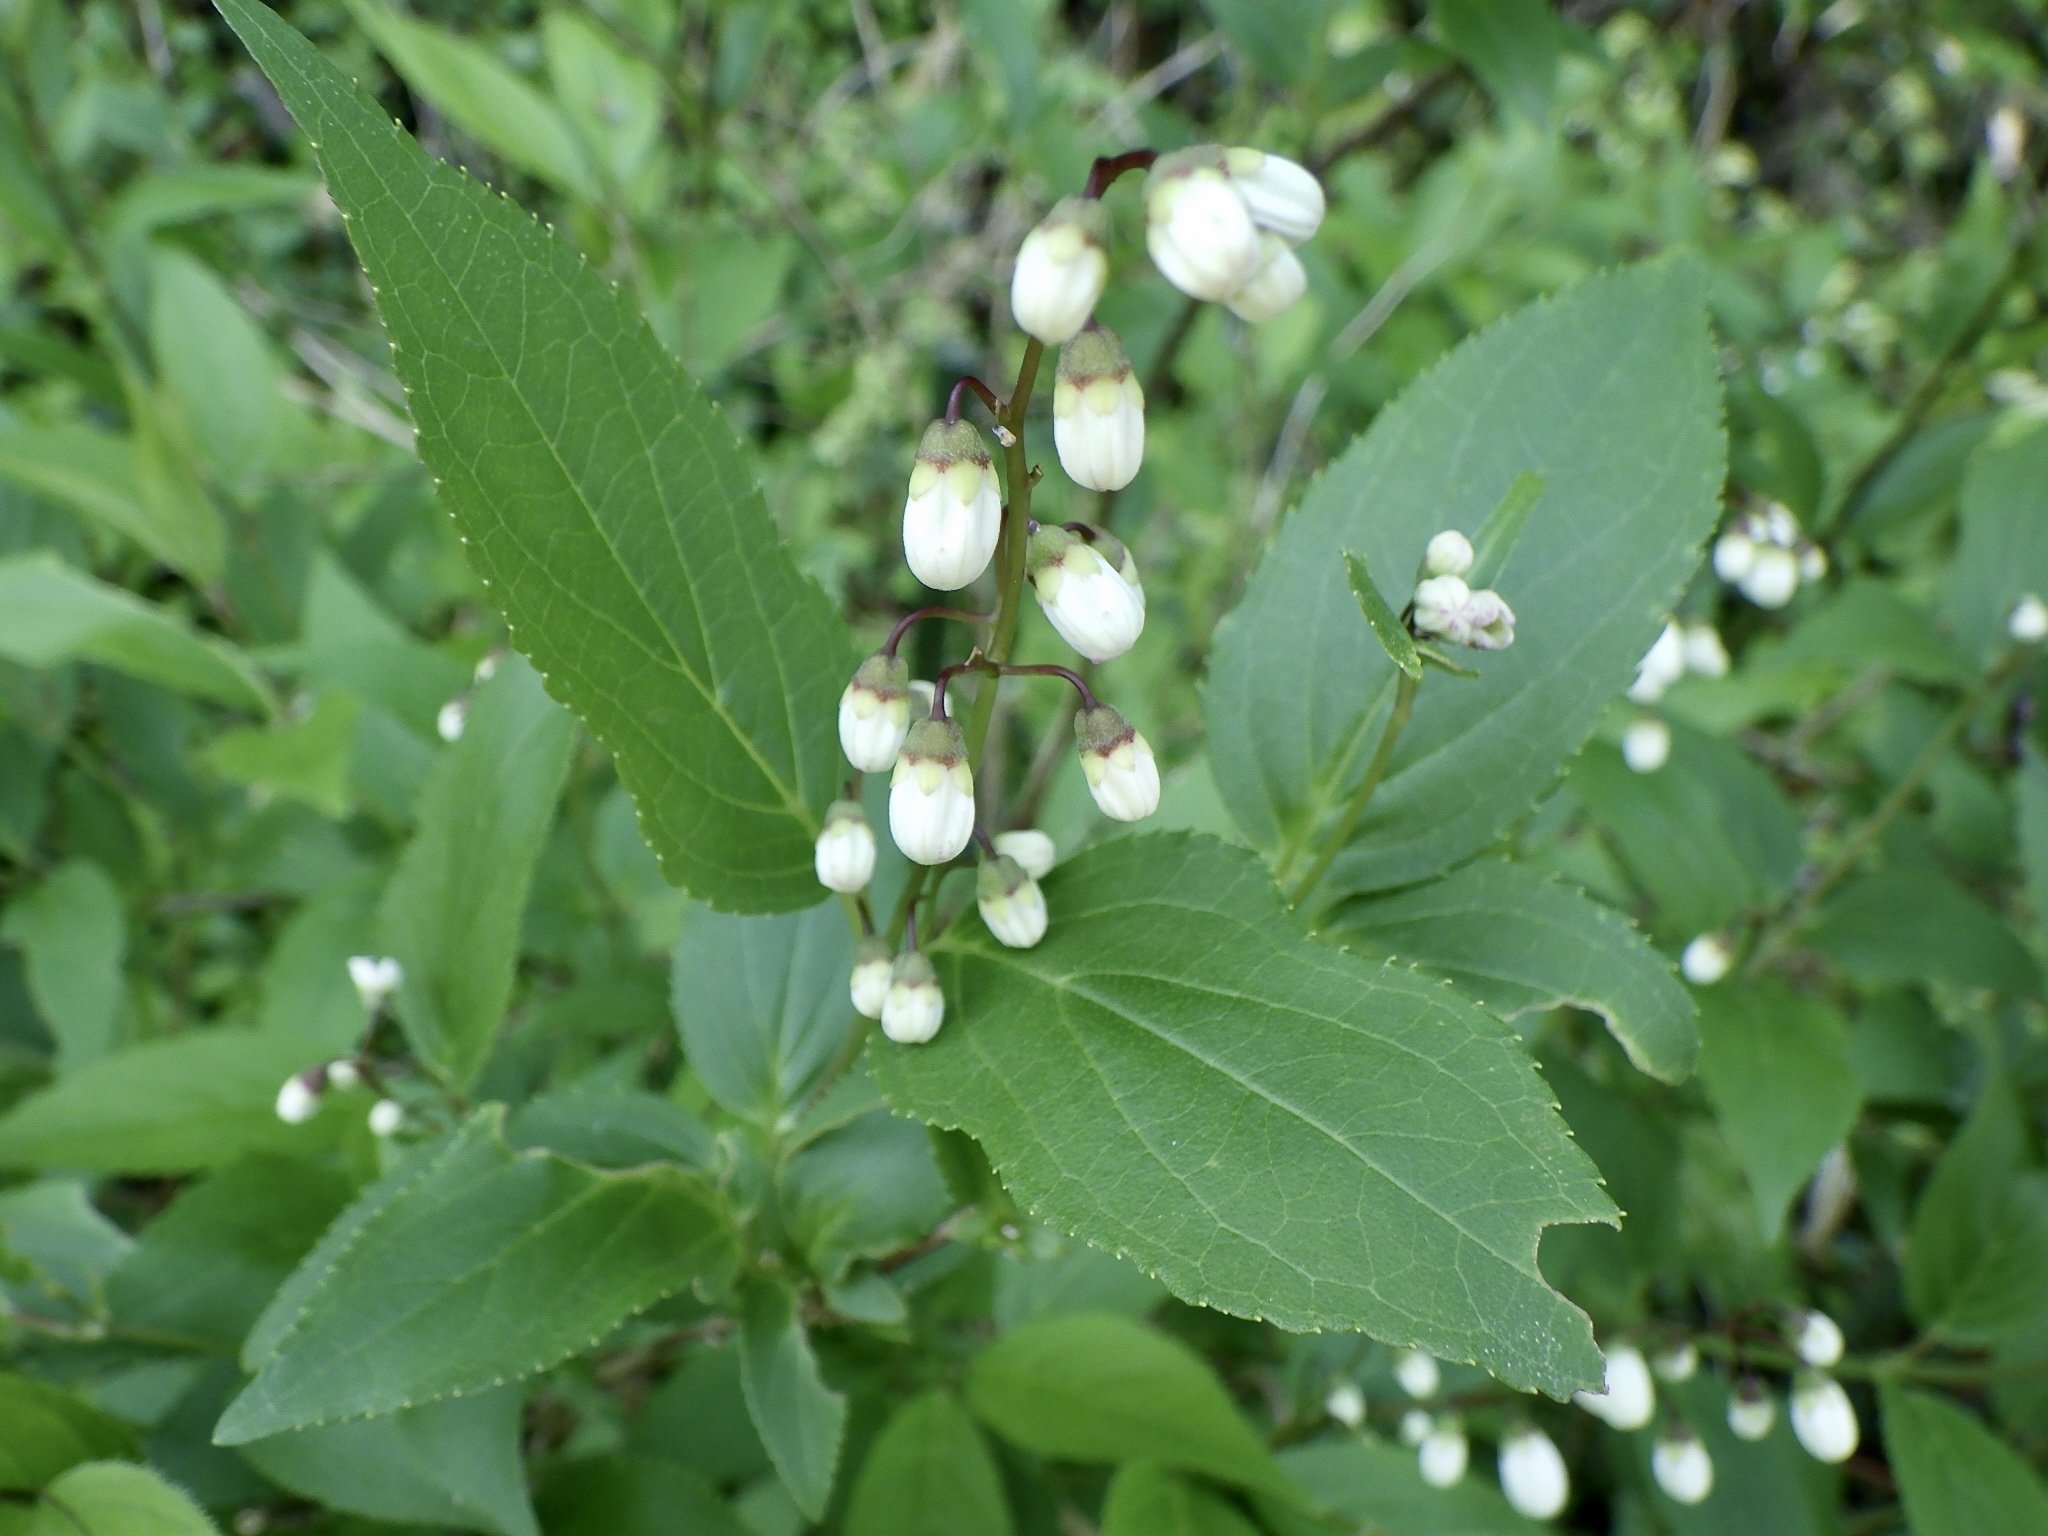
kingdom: Plantae
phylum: Tracheophyta
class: Magnoliopsida
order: Cornales
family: Hydrangeaceae
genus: Deutzia
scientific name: Deutzia crenata
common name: Deutzia
